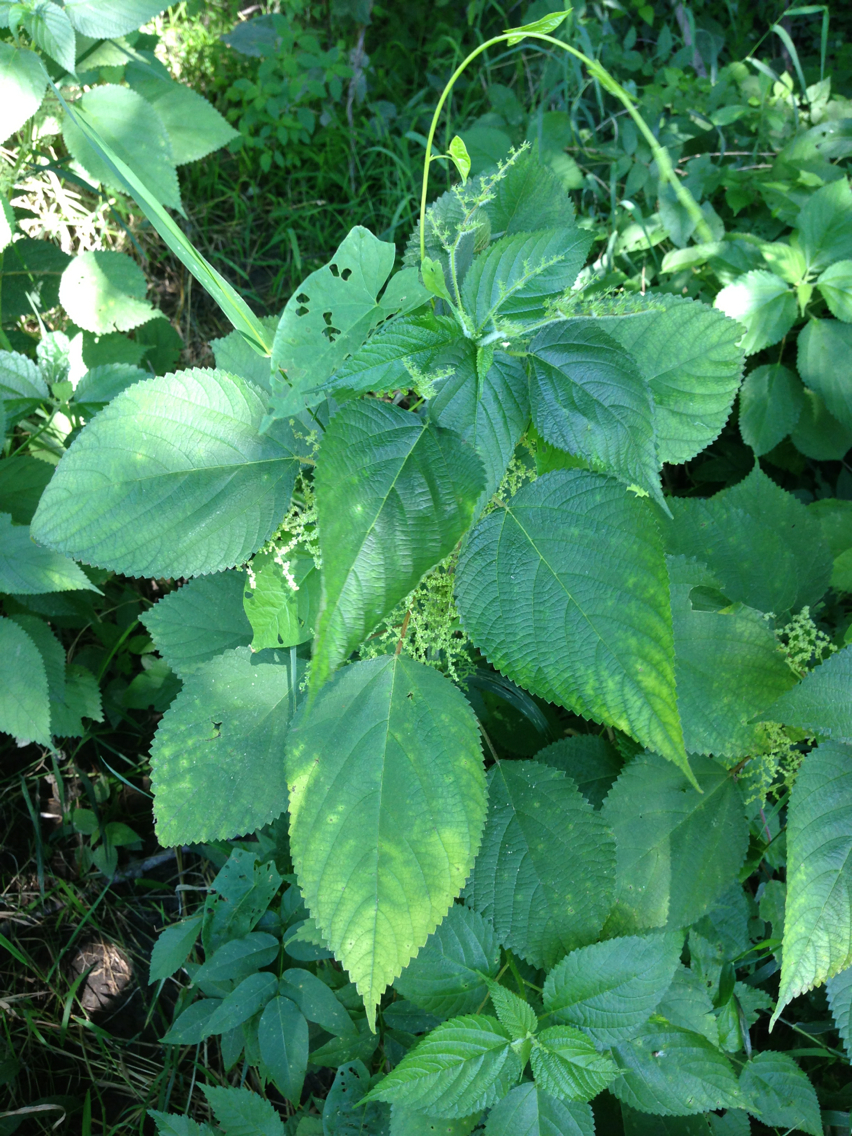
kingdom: Plantae
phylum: Tracheophyta
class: Magnoliopsida
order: Rosales
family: Urticaceae
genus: Laportea
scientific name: Laportea canadensis
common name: Canada nettle
